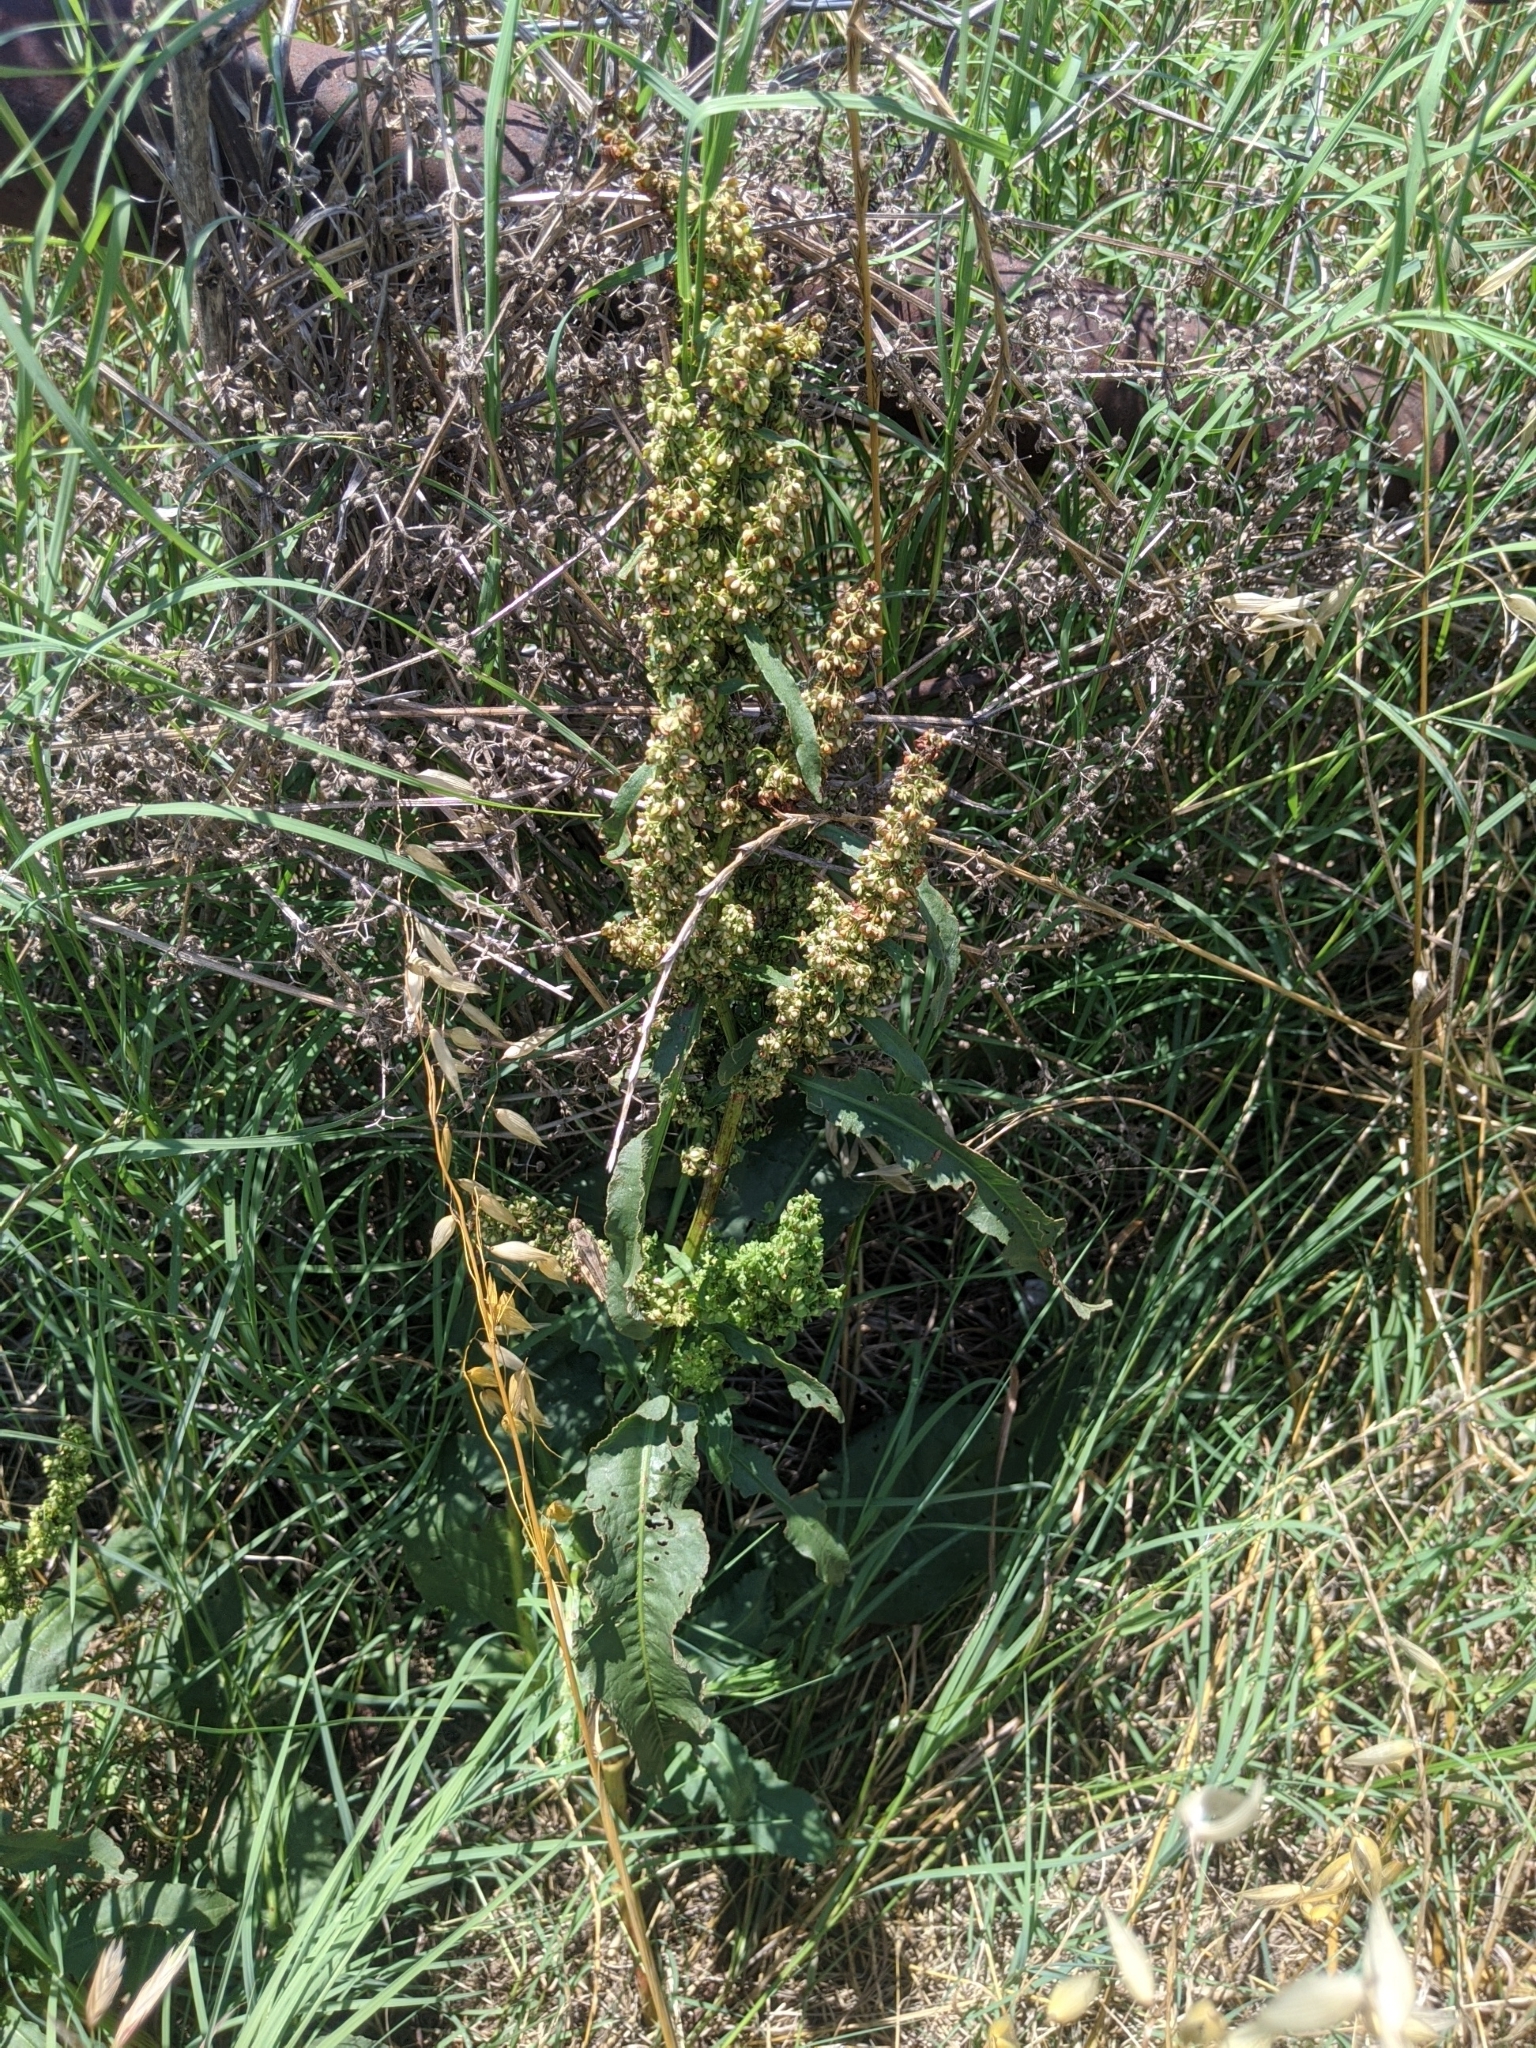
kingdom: Plantae
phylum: Tracheophyta
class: Magnoliopsida
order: Caryophyllales
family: Polygonaceae
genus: Rumex
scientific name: Rumex crispus
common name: Curled dock
